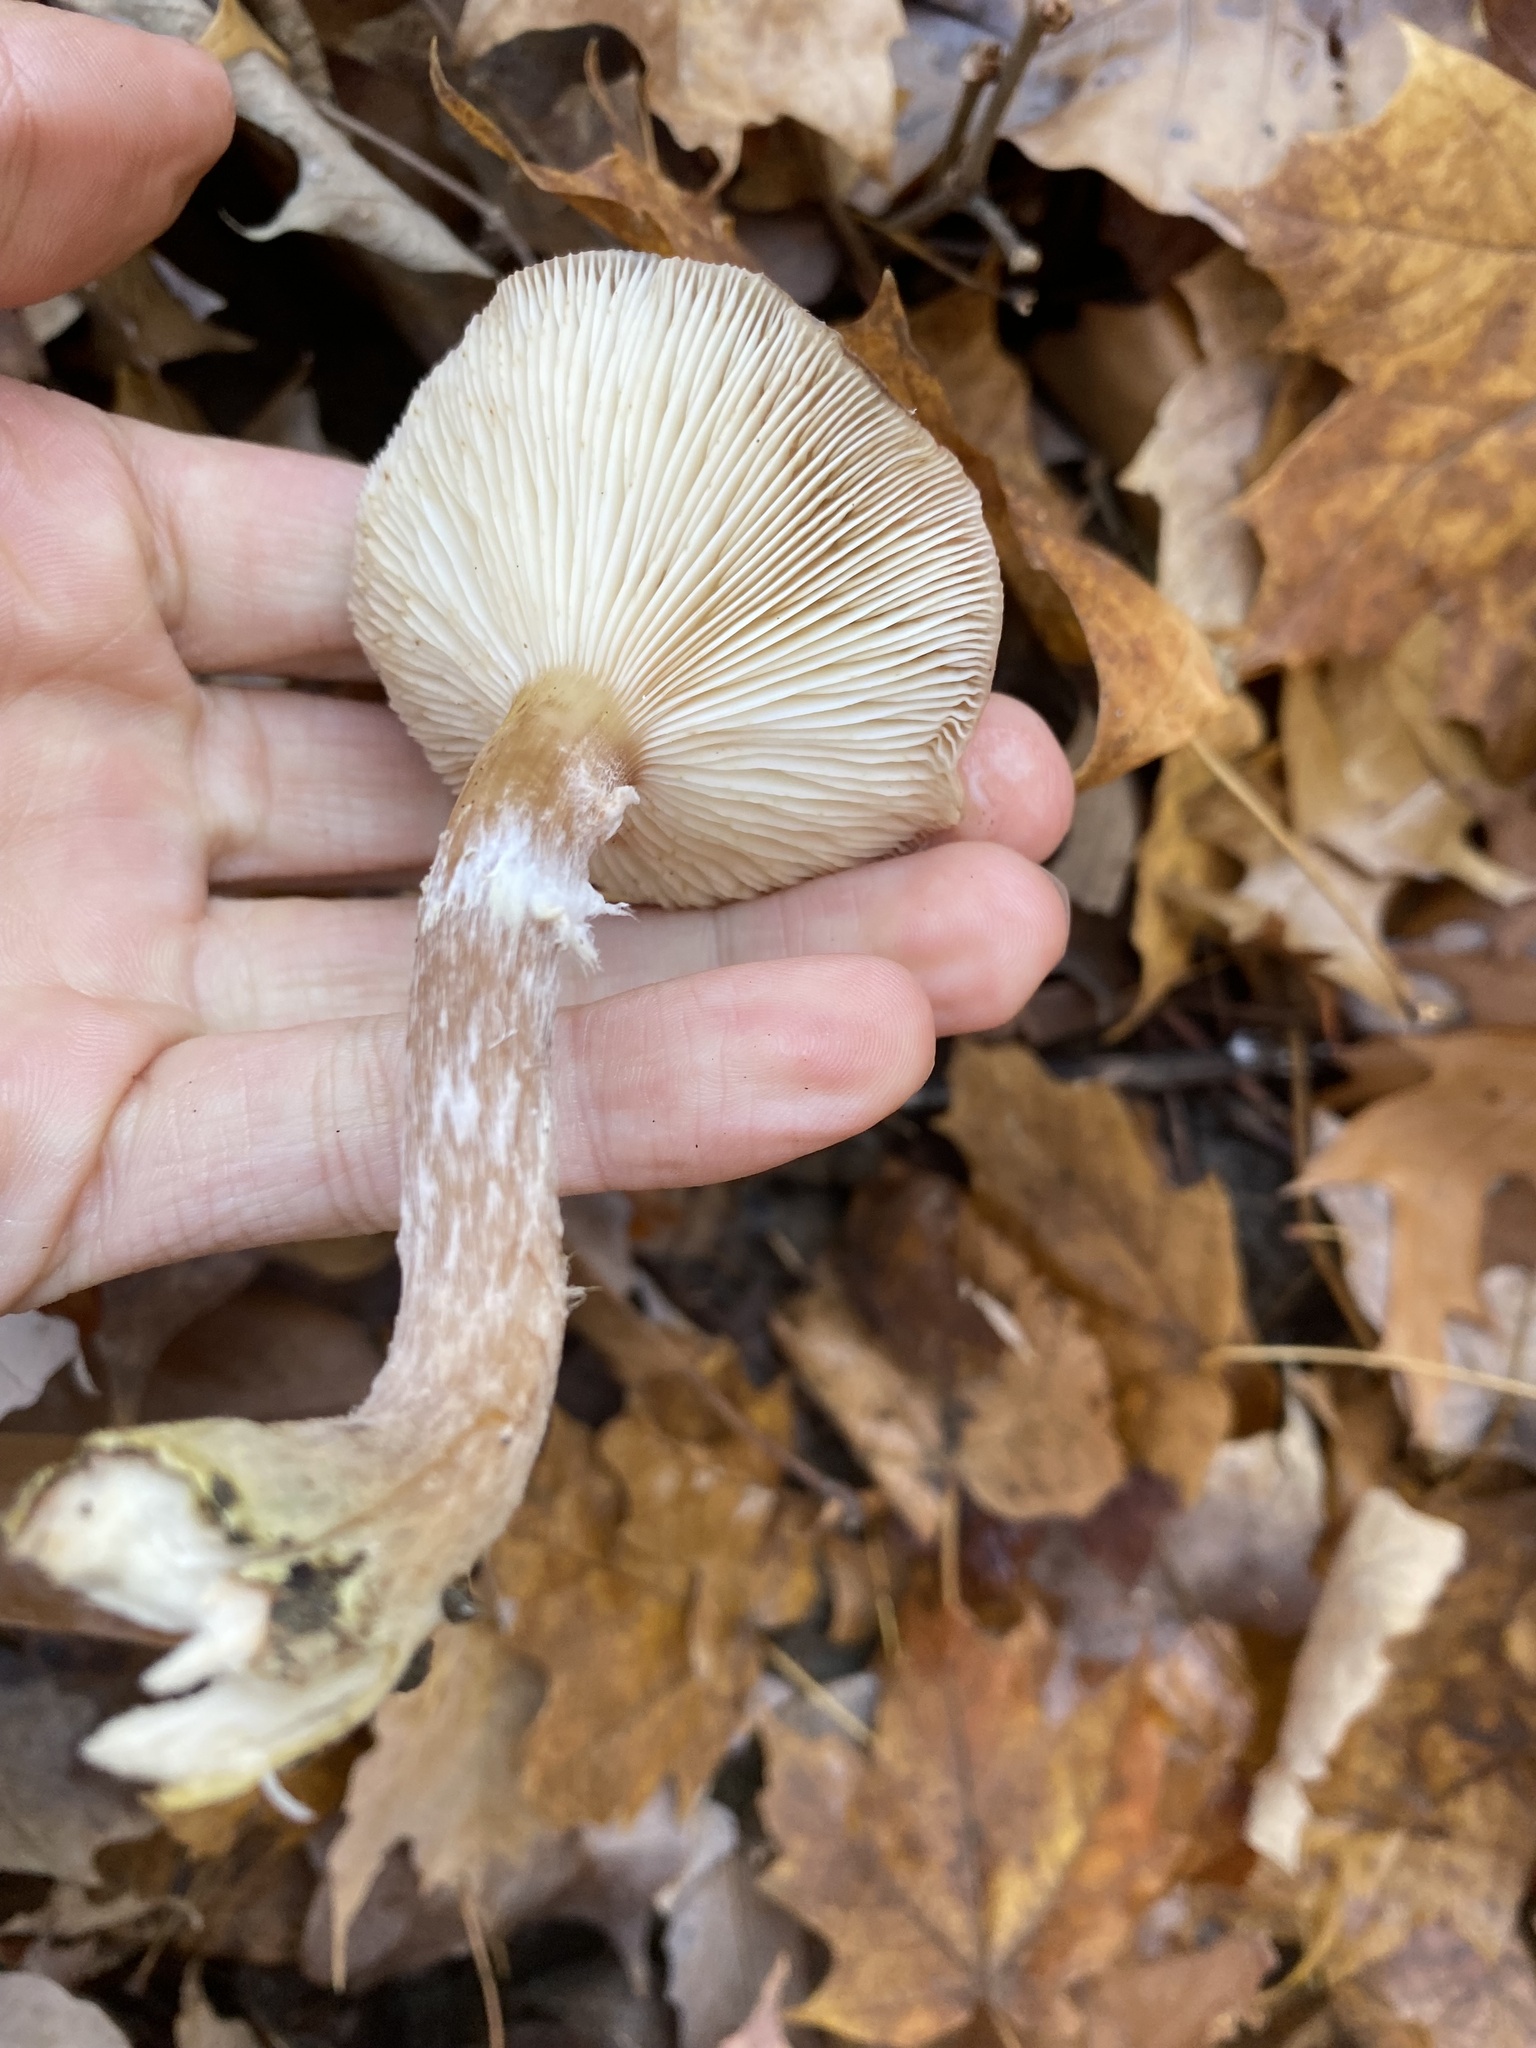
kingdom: Fungi
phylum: Basidiomycota
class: Agaricomycetes
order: Agaricales
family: Physalacriaceae
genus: Armillaria
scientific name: Armillaria gallica
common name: Bulbous honey fungus
